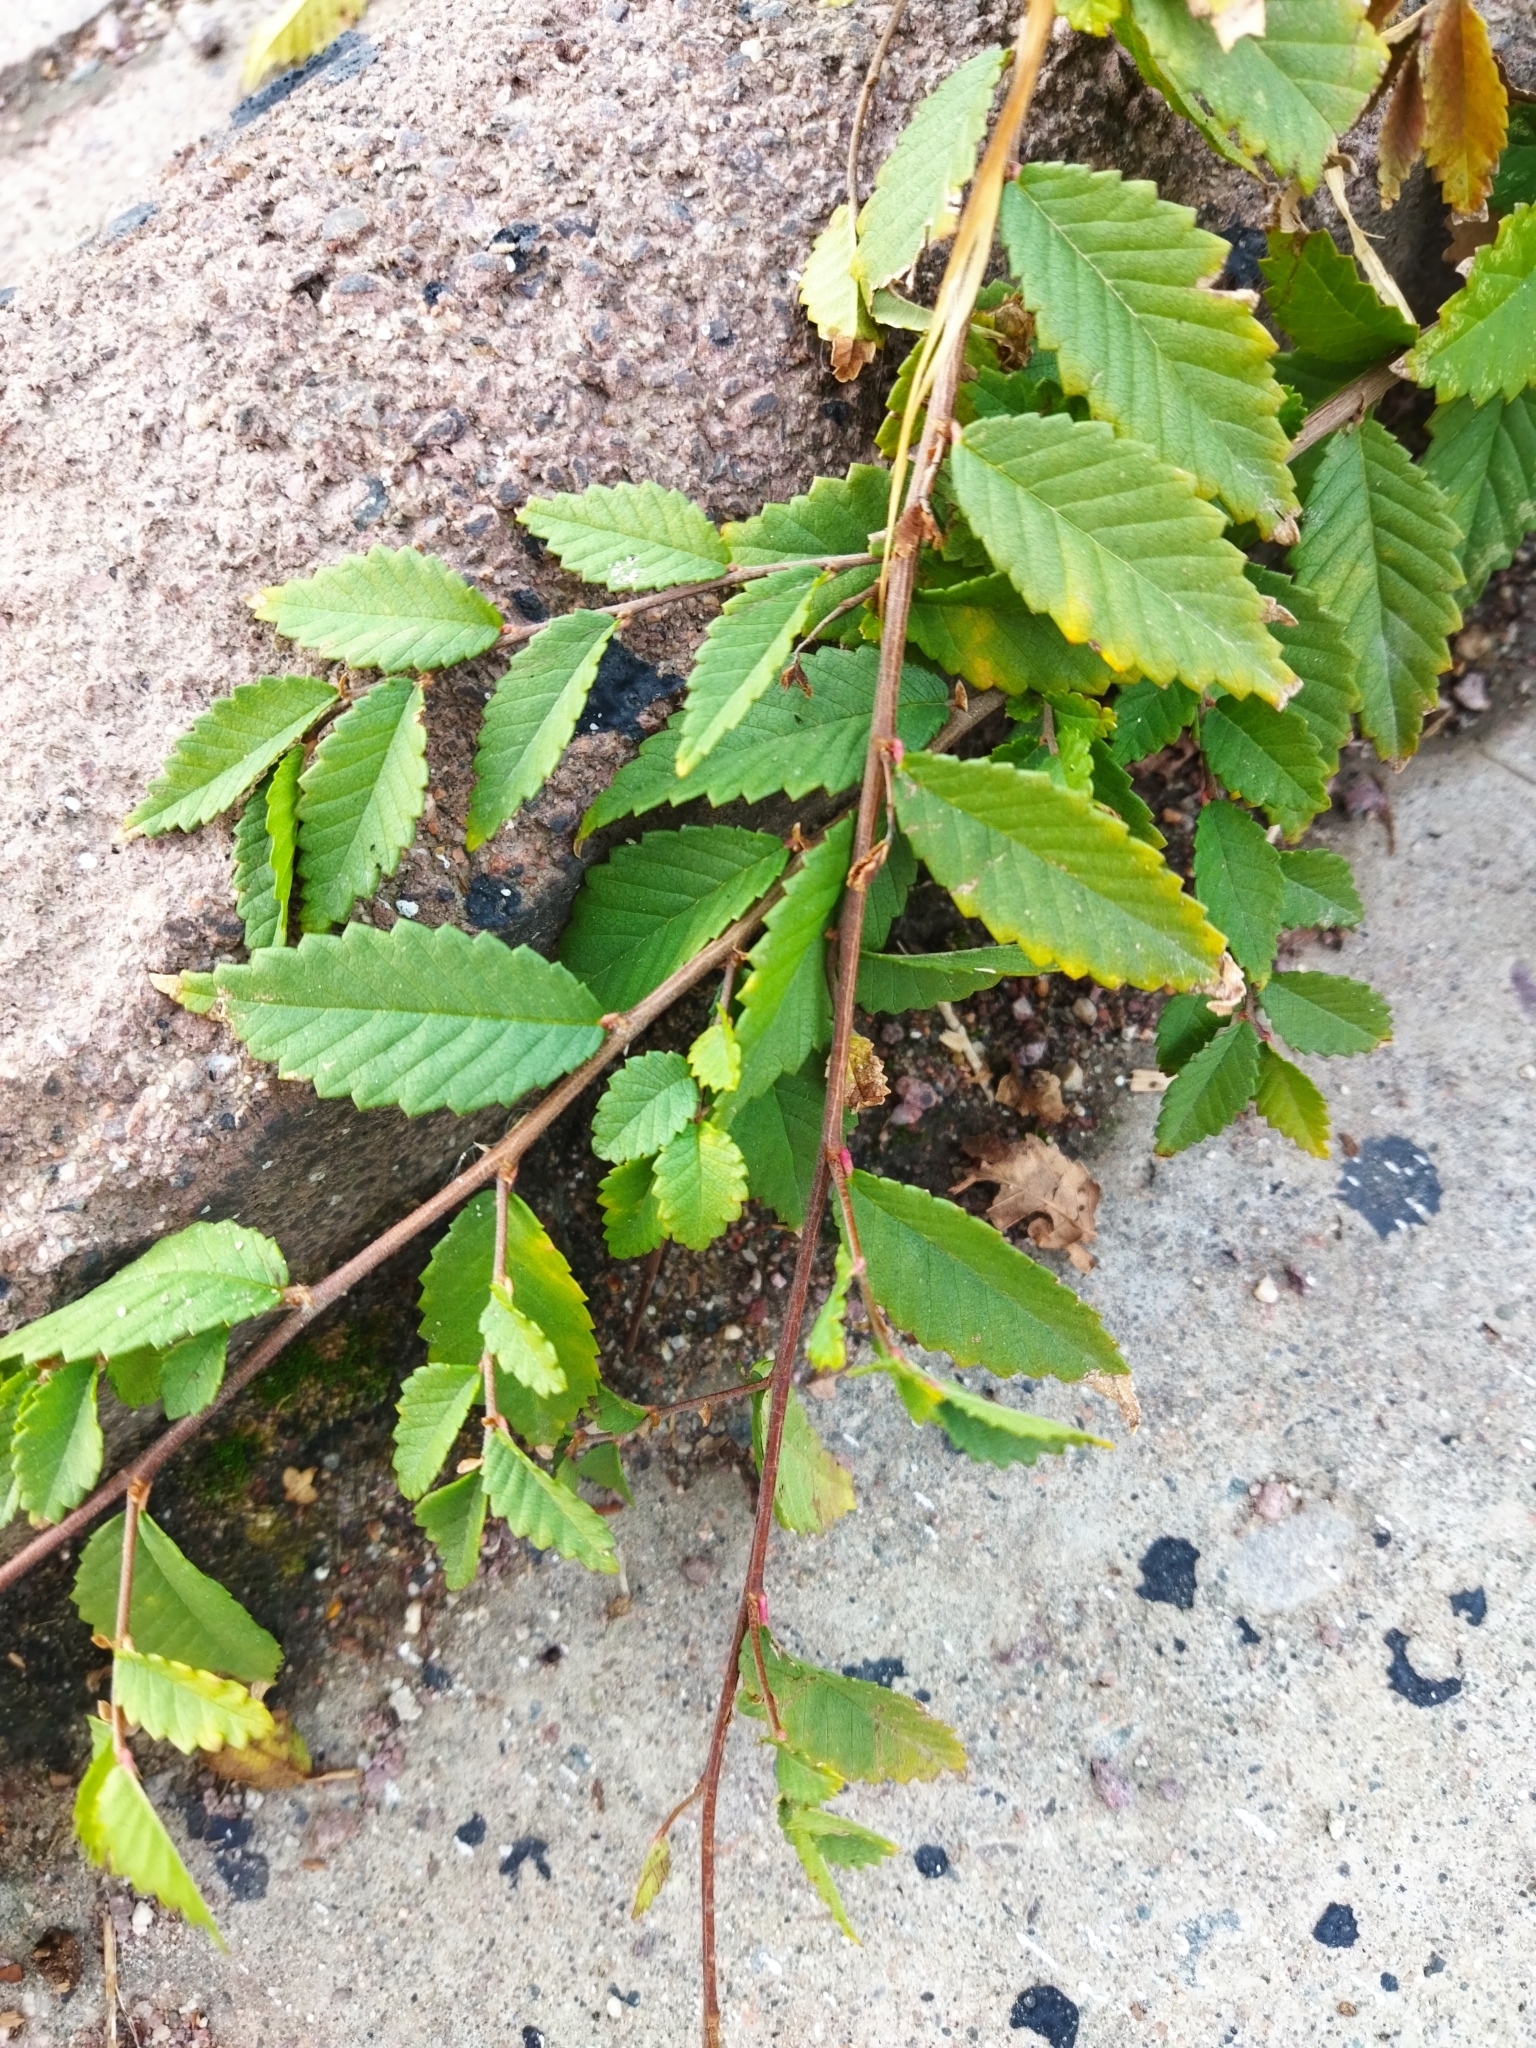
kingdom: Plantae
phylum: Tracheophyta
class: Magnoliopsida
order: Rosales
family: Ulmaceae
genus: Ulmus
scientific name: Ulmus pumila
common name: Siberian elm
